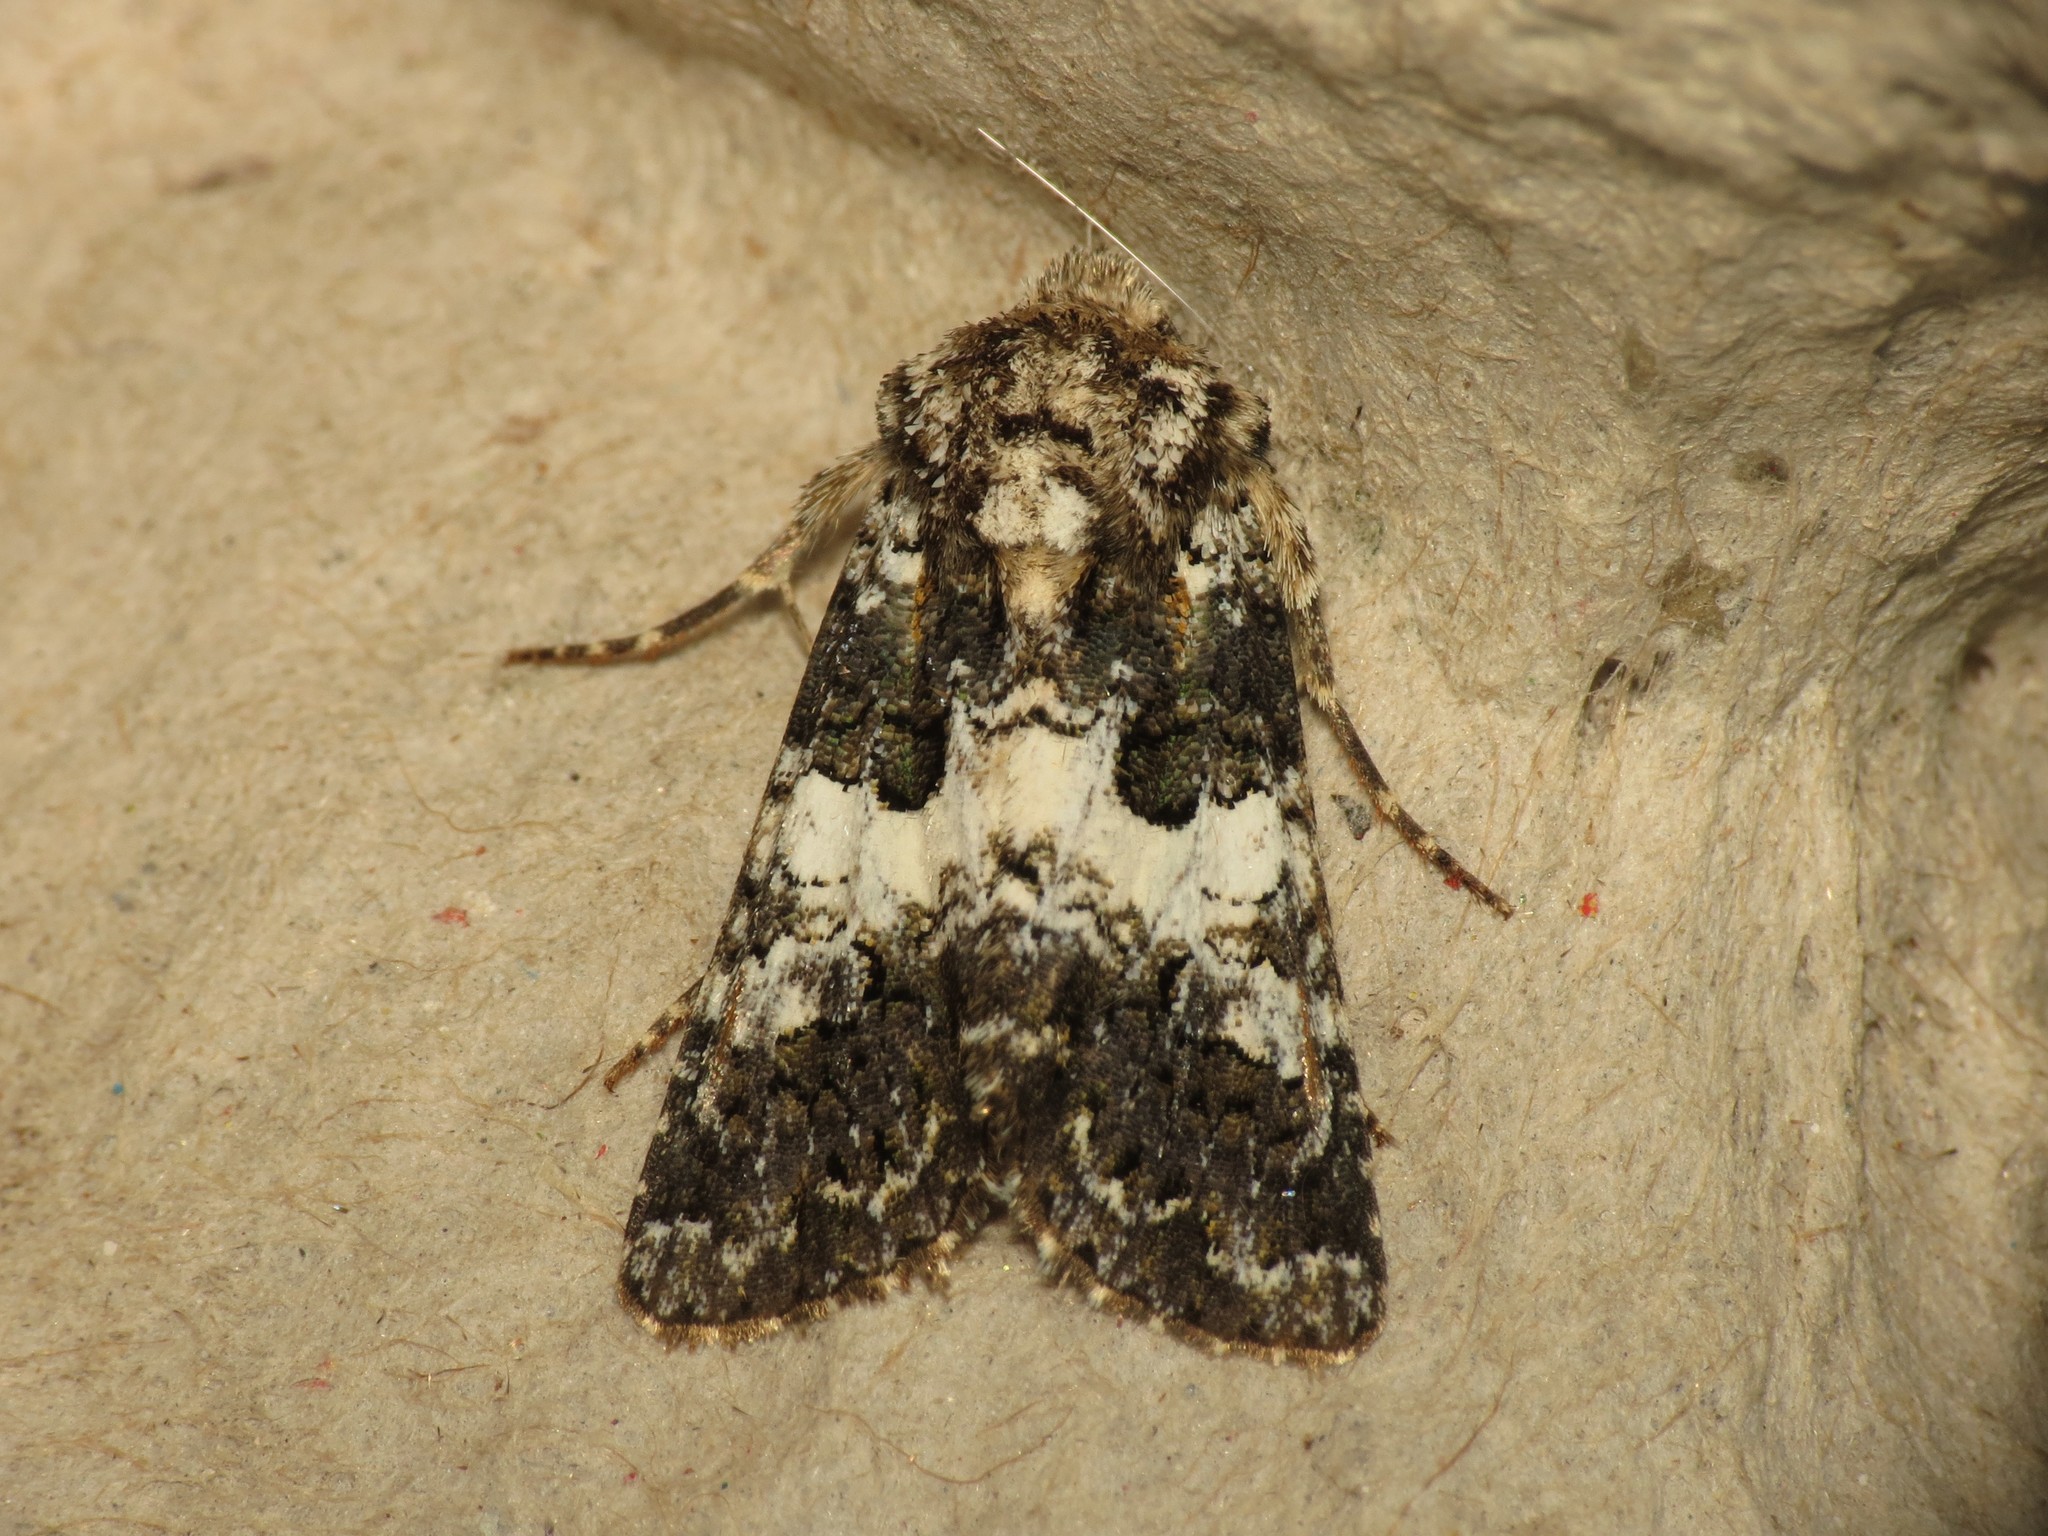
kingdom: Animalia
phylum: Arthropoda
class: Insecta
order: Lepidoptera
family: Noctuidae
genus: Hadena
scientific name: Hadena compta
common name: Varied coronet
